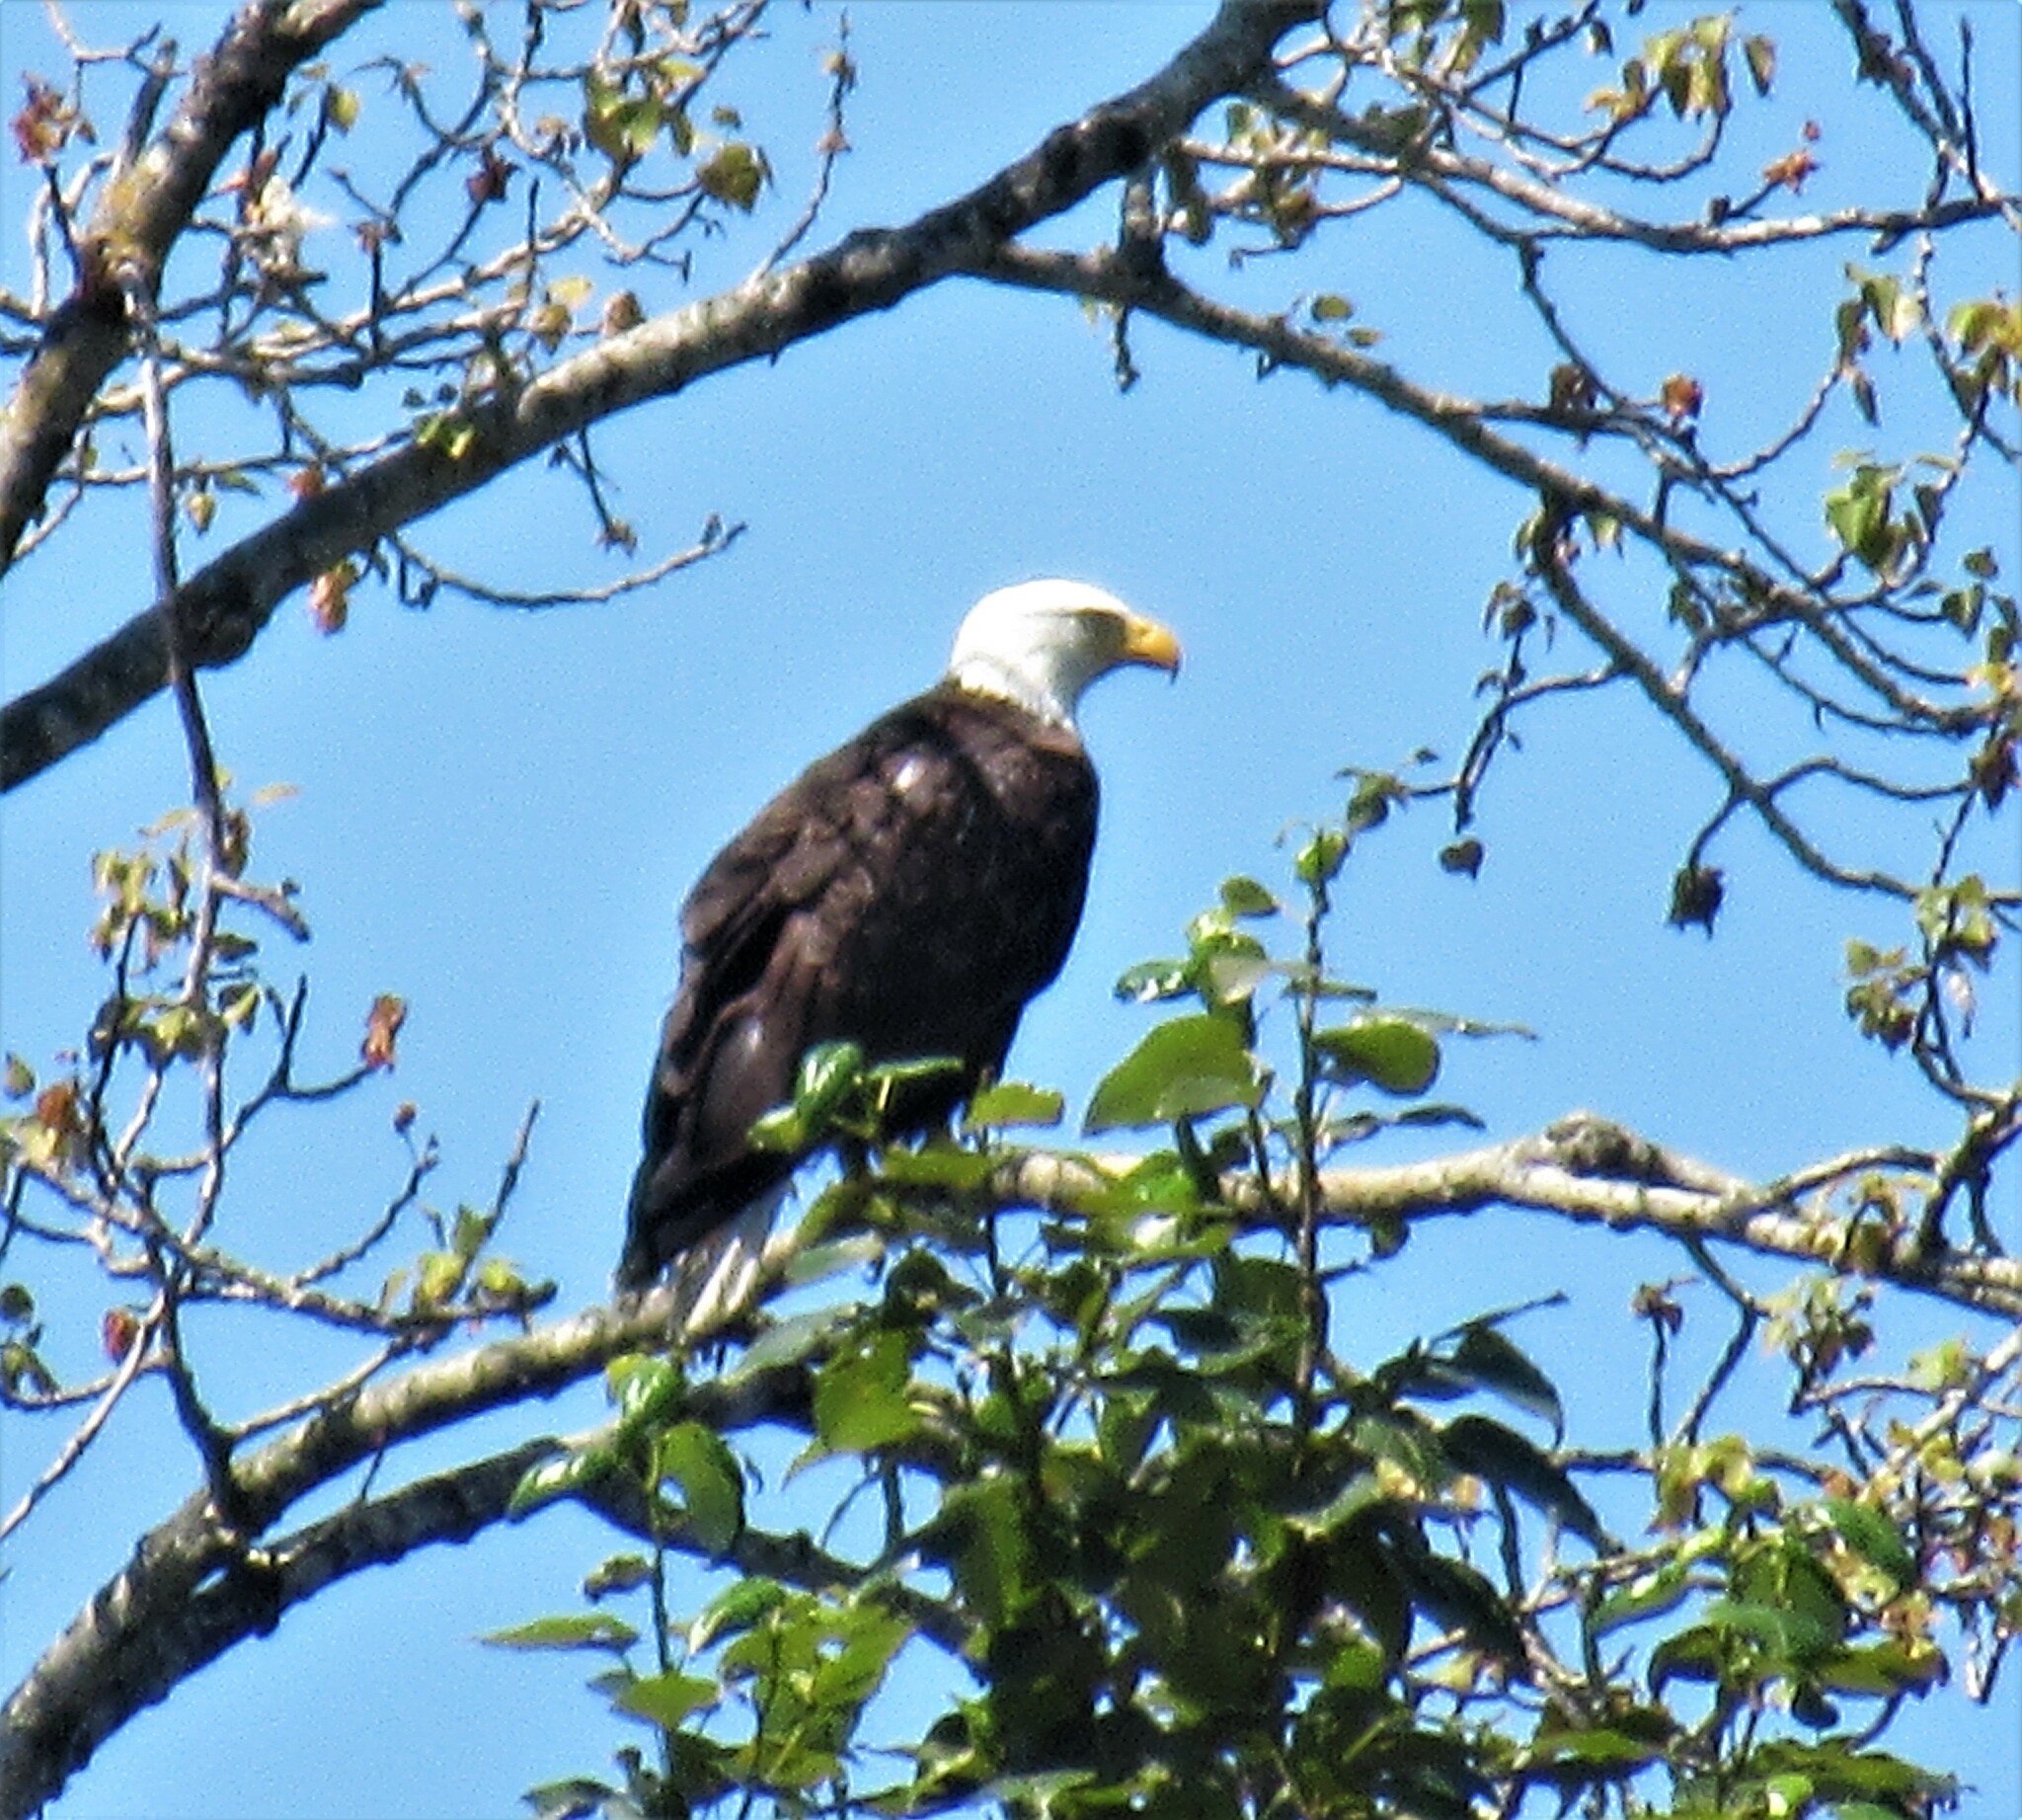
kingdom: Animalia
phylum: Chordata
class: Aves
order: Accipitriformes
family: Accipitridae
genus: Haliaeetus
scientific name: Haliaeetus leucocephalus
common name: Bald eagle
